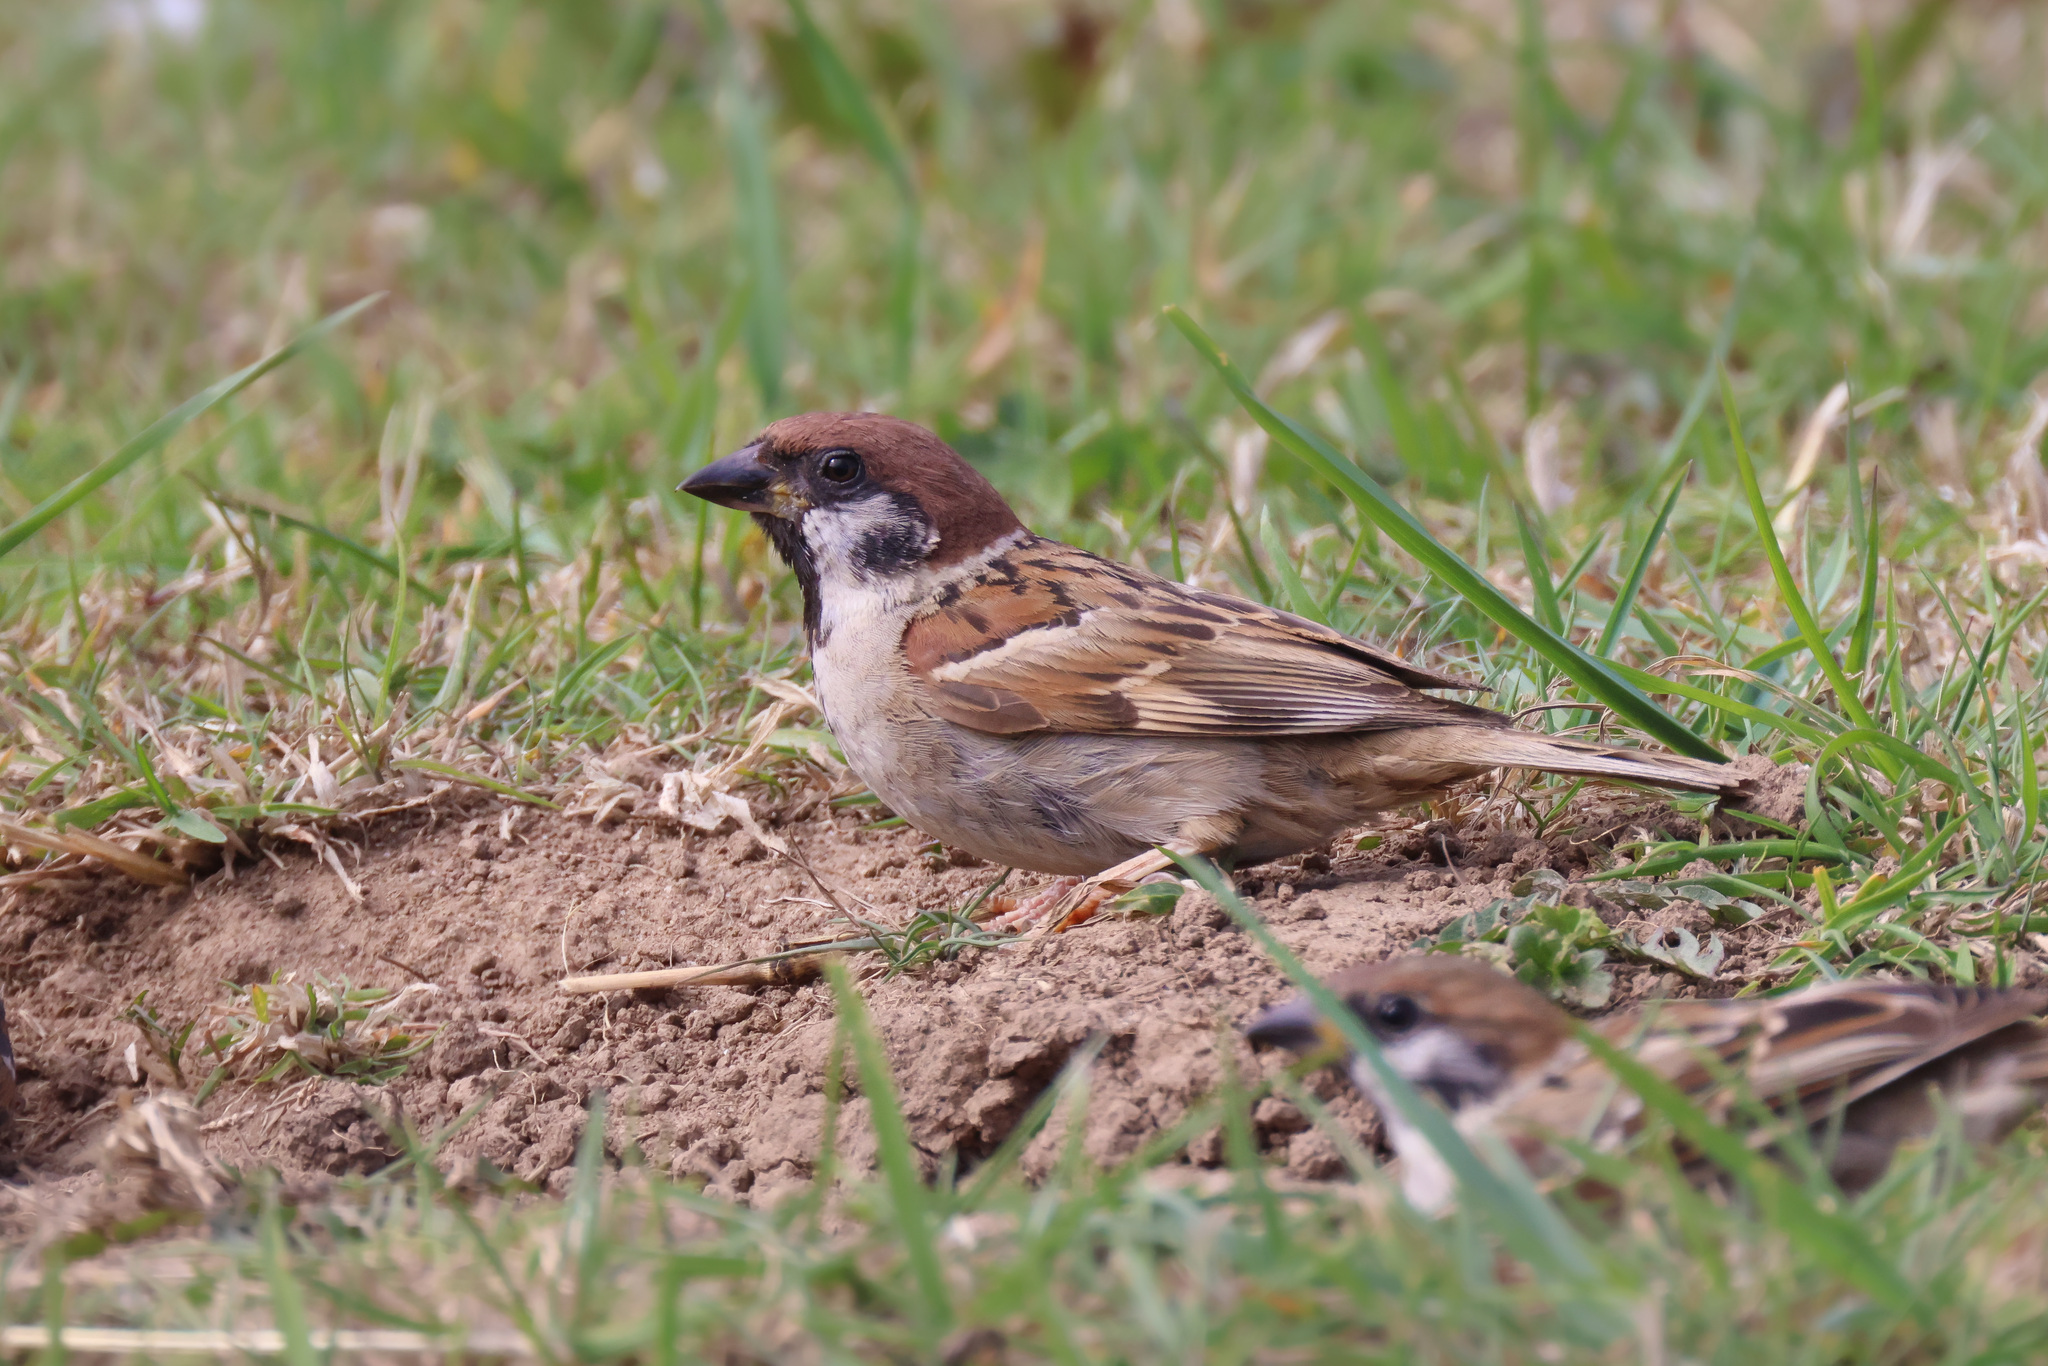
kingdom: Animalia
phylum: Chordata
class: Aves
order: Passeriformes
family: Passeridae
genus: Passer
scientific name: Passer montanus
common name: Eurasian tree sparrow
